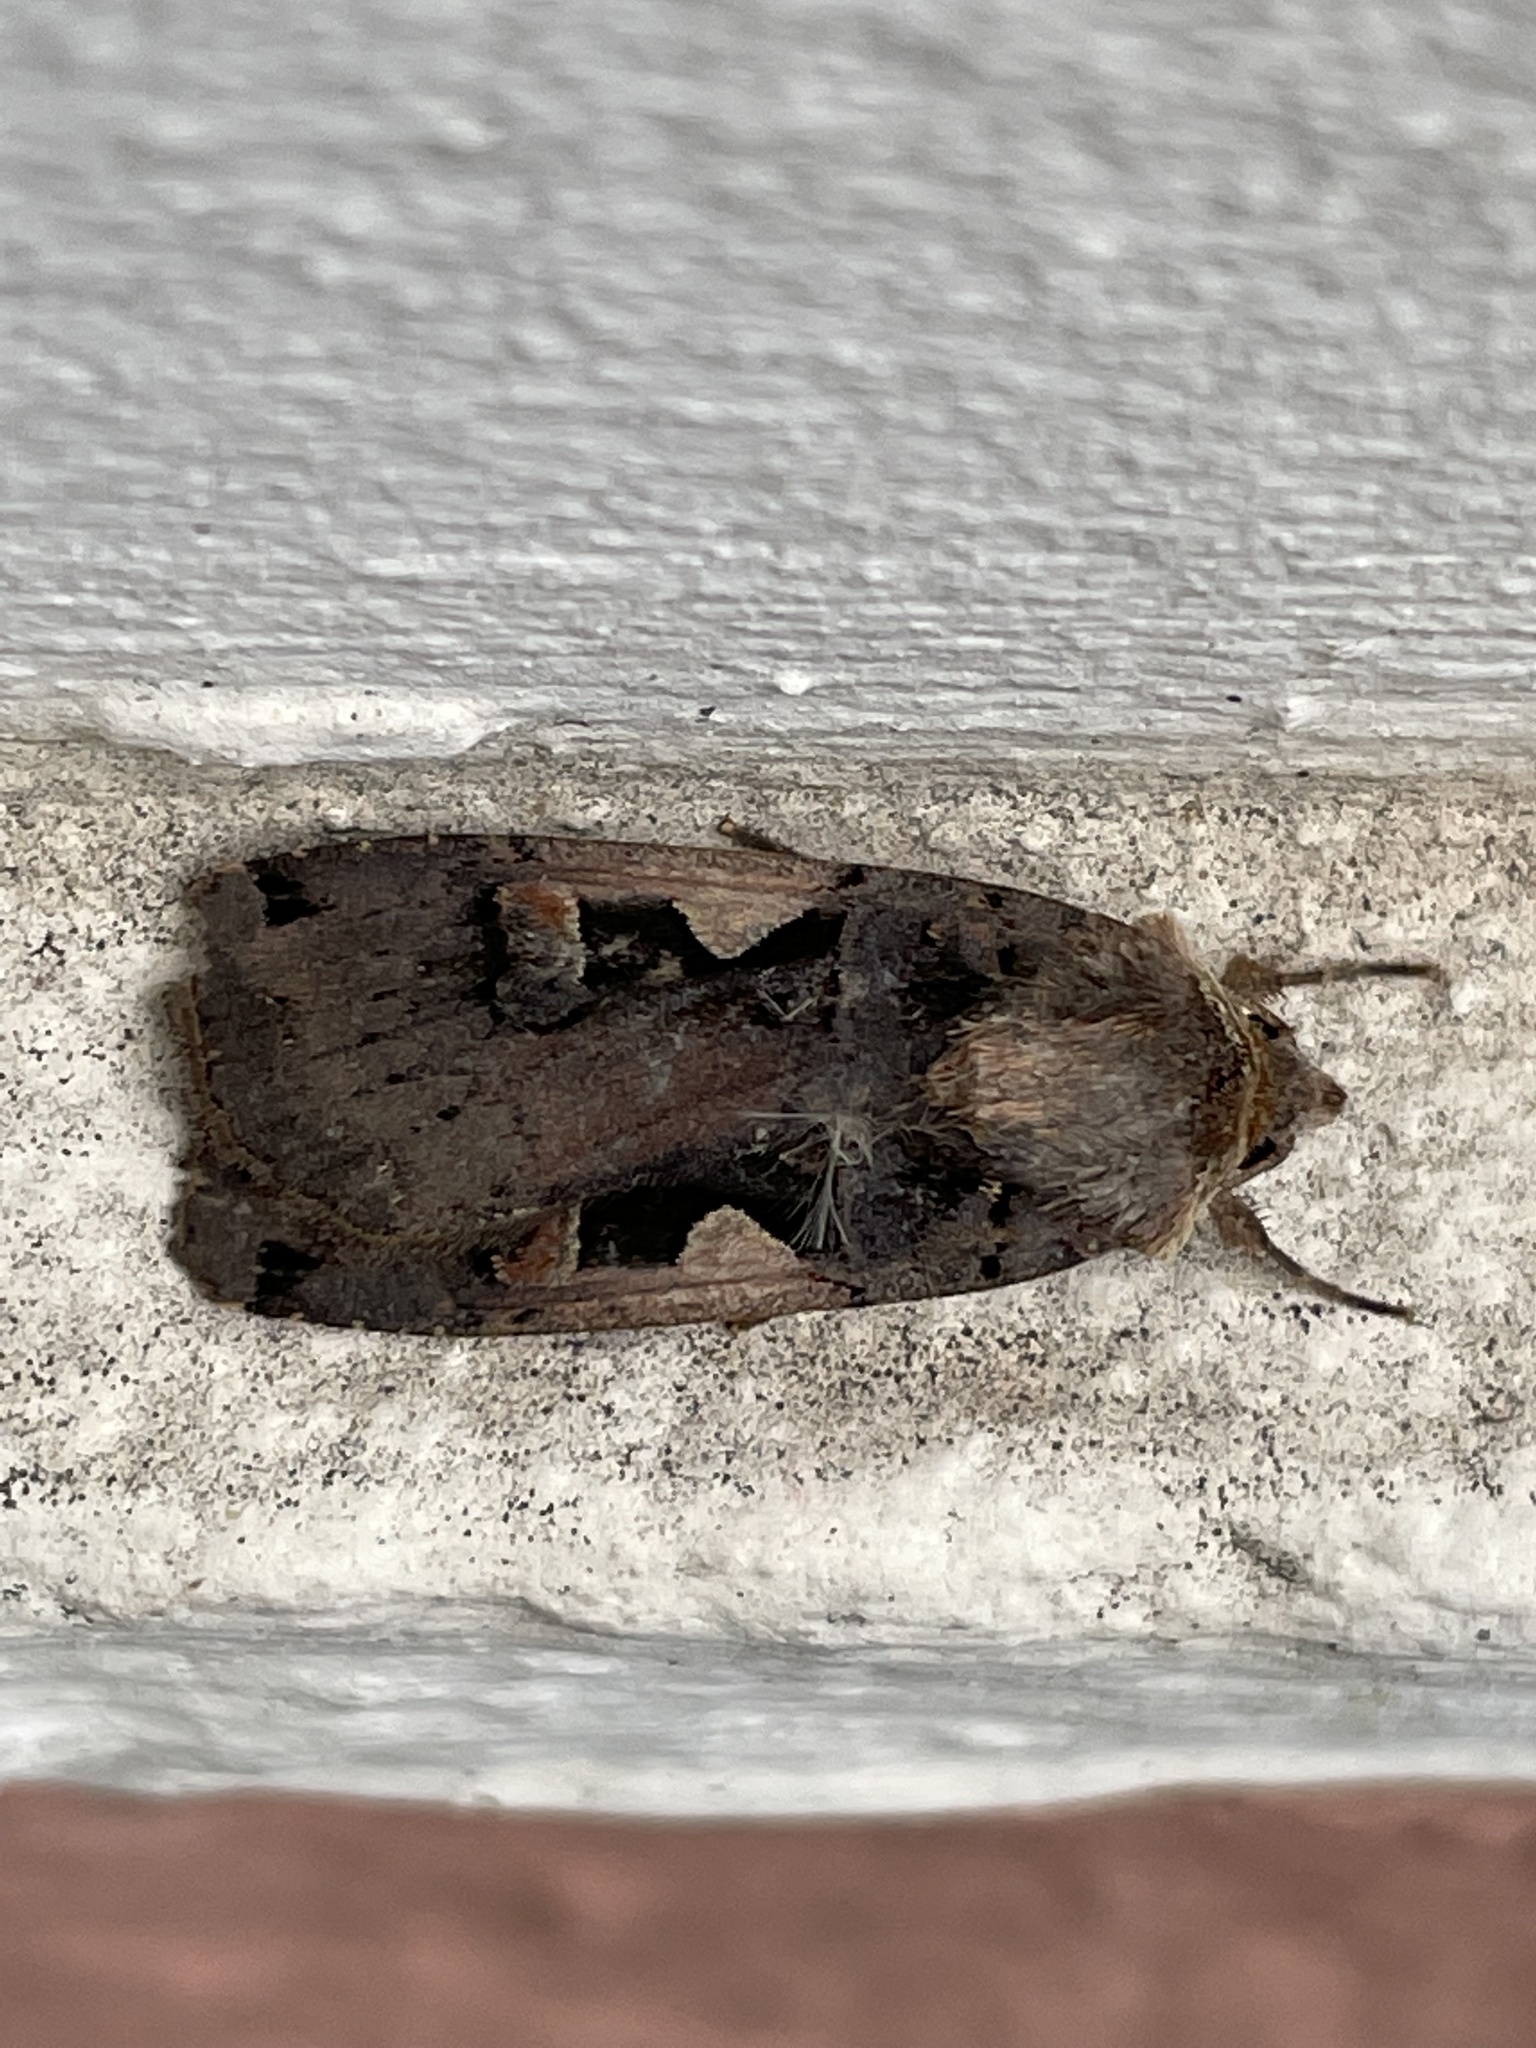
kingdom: Animalia
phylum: Arthropoda
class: Insecta
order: Lepidoptera
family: Noctuidae
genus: Xestia
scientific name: Xestia c-nigrum
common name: Setaceous hebrew character
